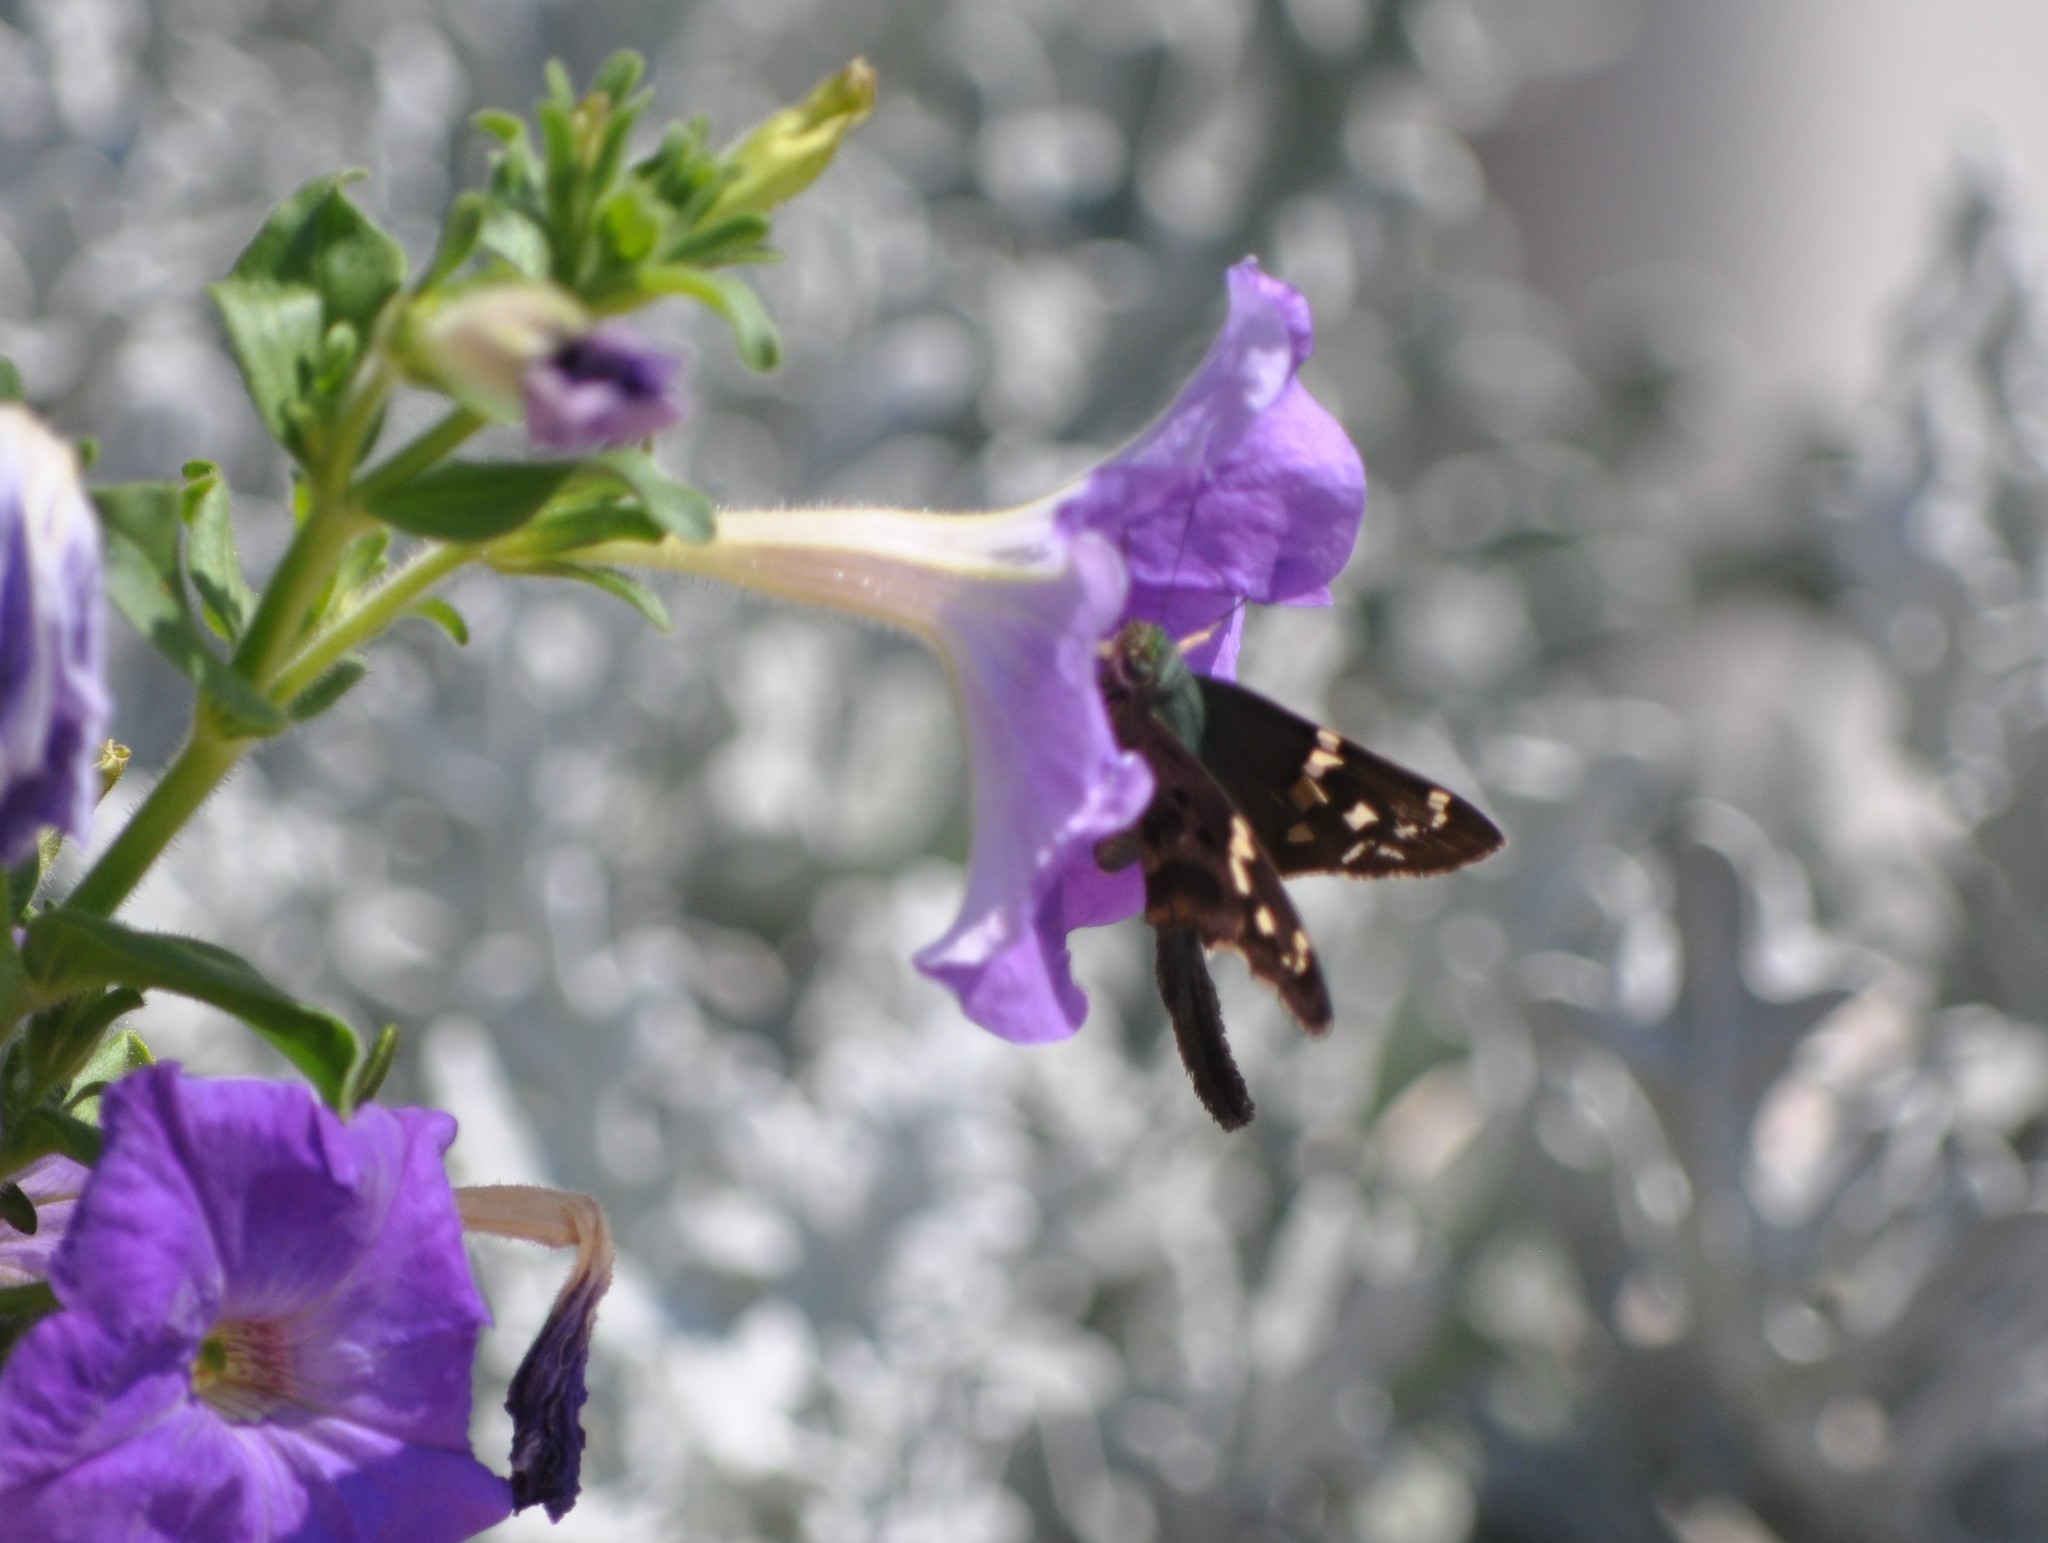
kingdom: Animalia
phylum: Arthropoda
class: Insecta
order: Lepidoptera
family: Hesperiidae
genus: Urbanus
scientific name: Urbanus proteus
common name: Long-tailed skipper
